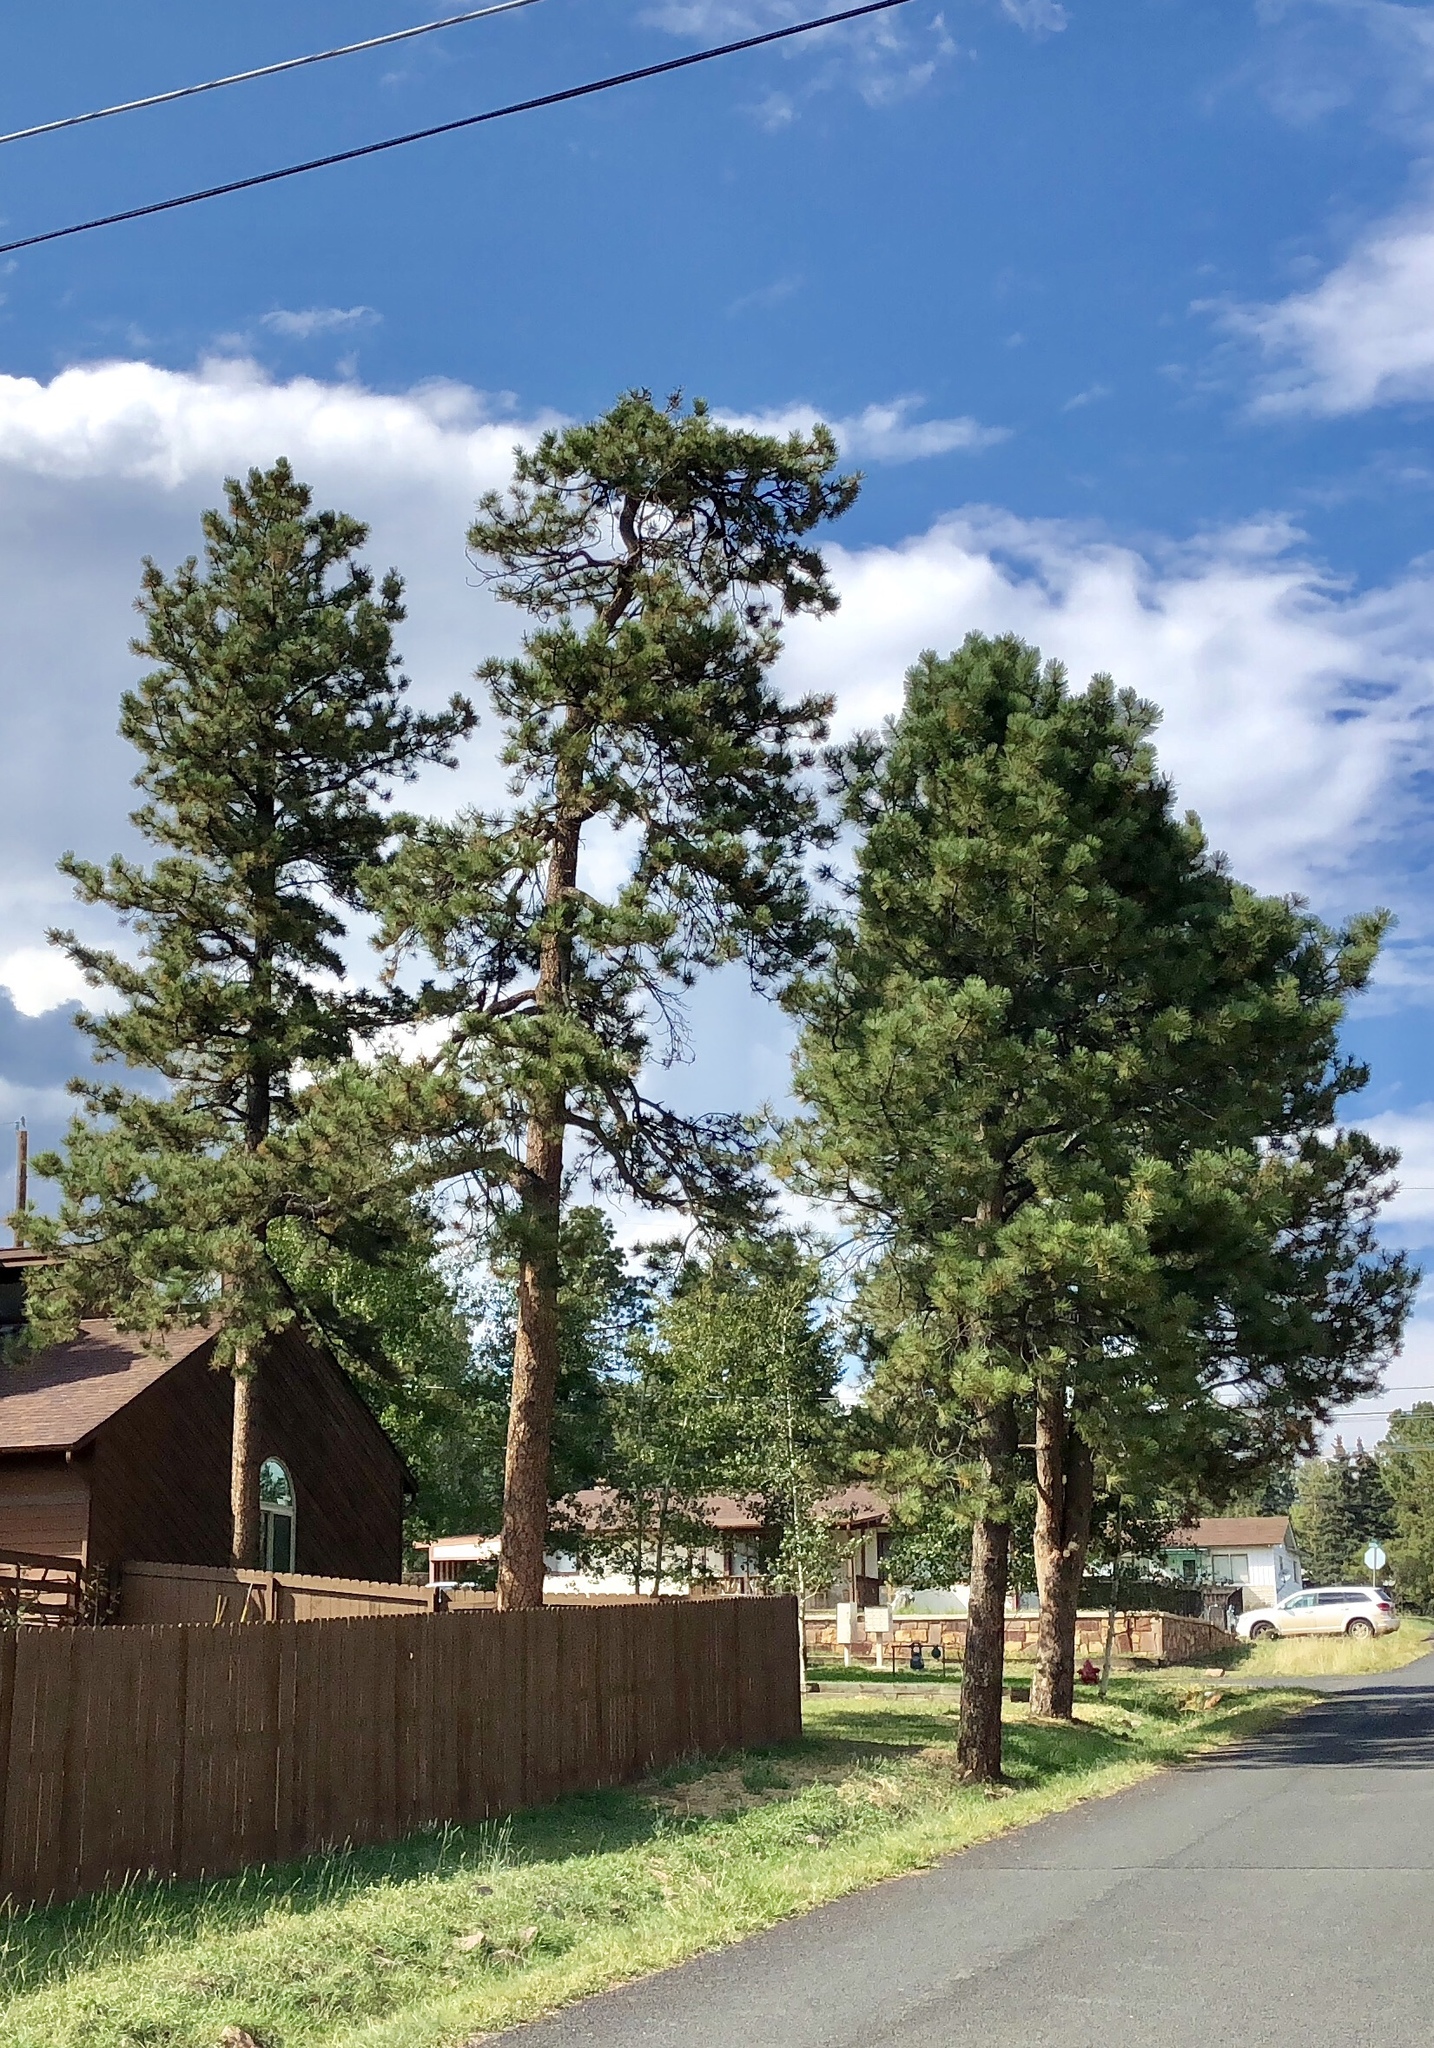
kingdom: Plantae
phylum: Tracheophyta
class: Pinopsida
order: Pinales
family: Pinaceae
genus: Pinus
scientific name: Pinus ponderosa
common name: Western yellow-pine
